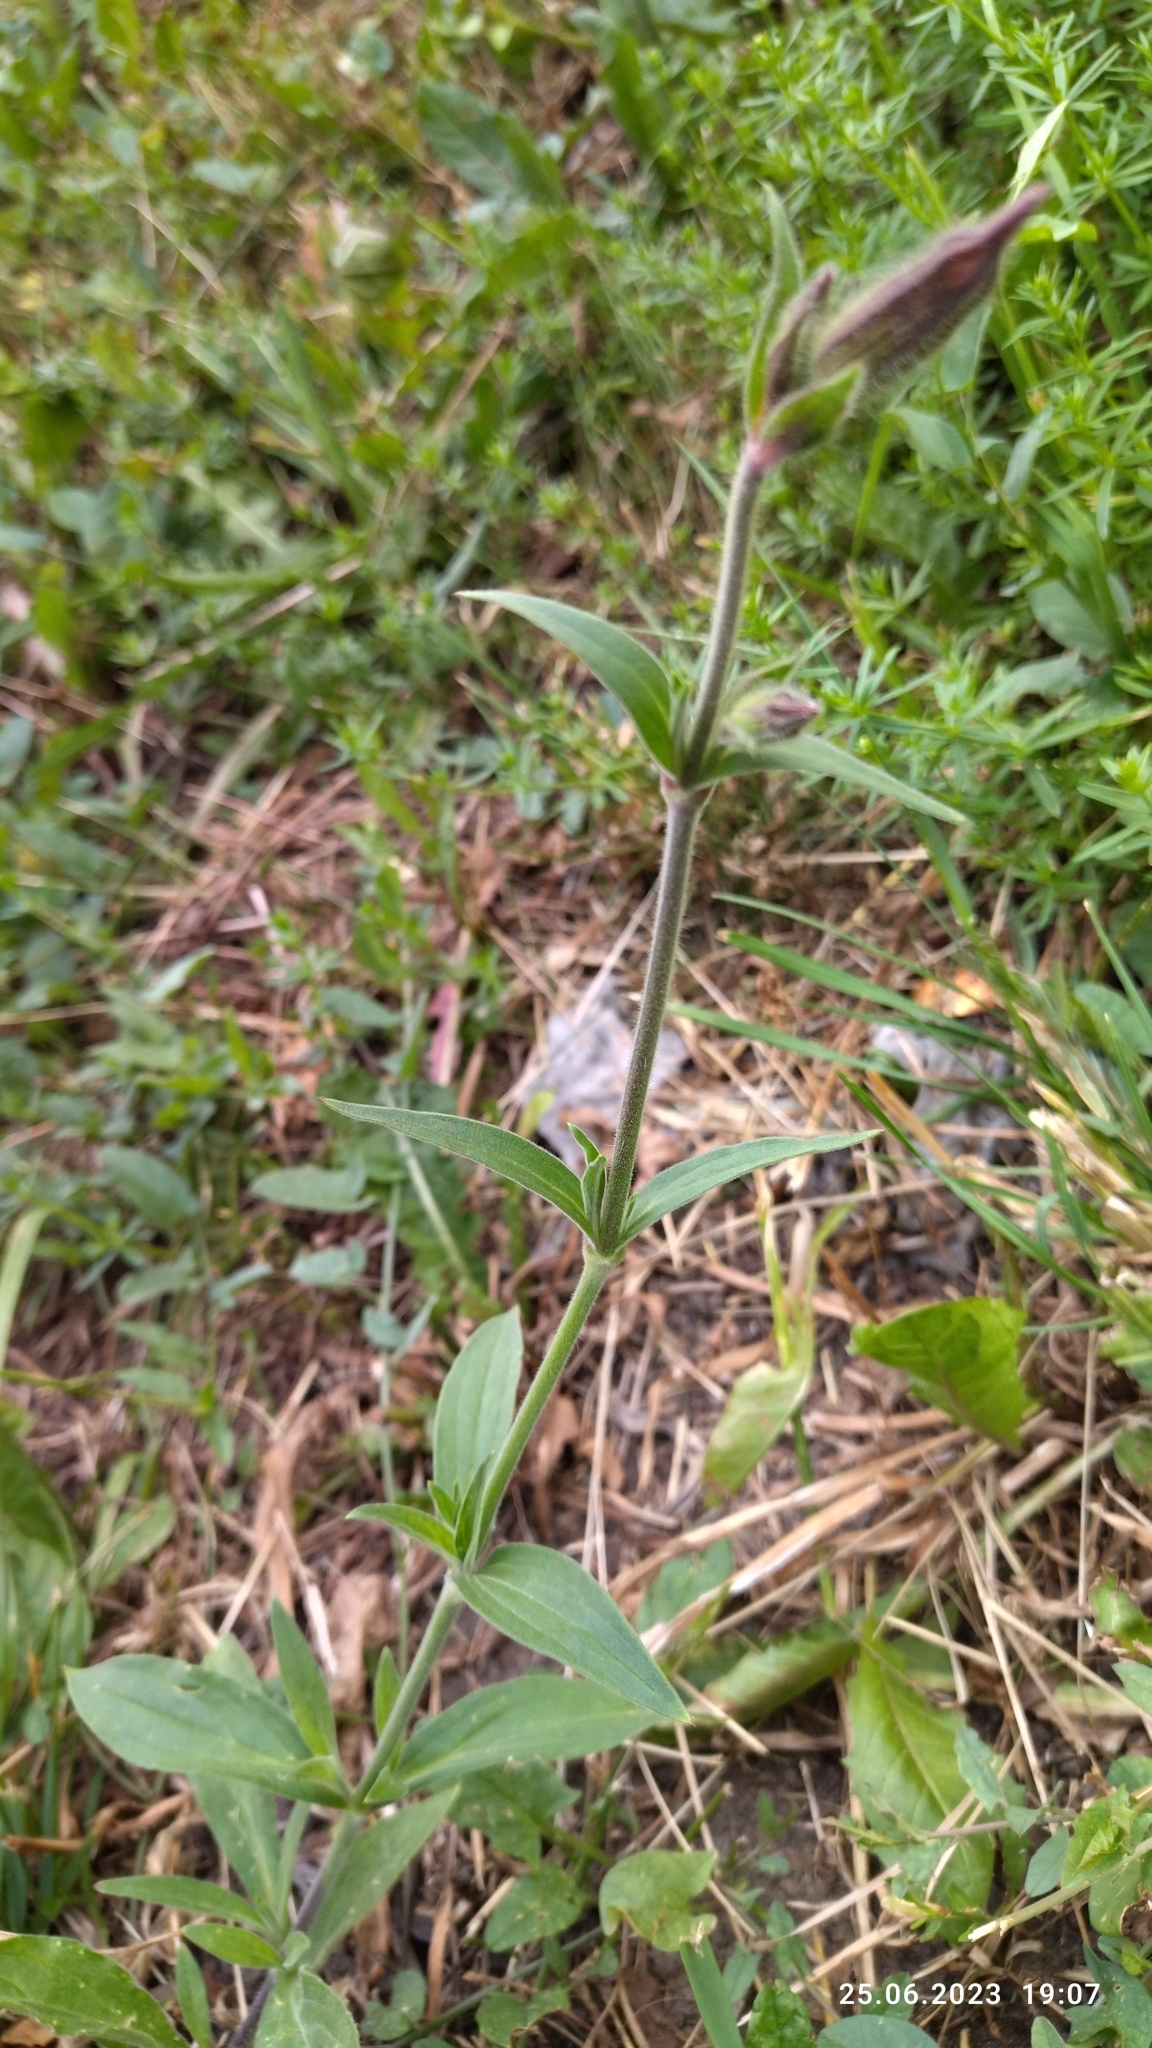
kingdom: Plantae
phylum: Tracheophyta
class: Magnoliopsida
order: Caryophyllales
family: Caryophyllaceae
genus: Silene
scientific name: Silene latifolia
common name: White campion
